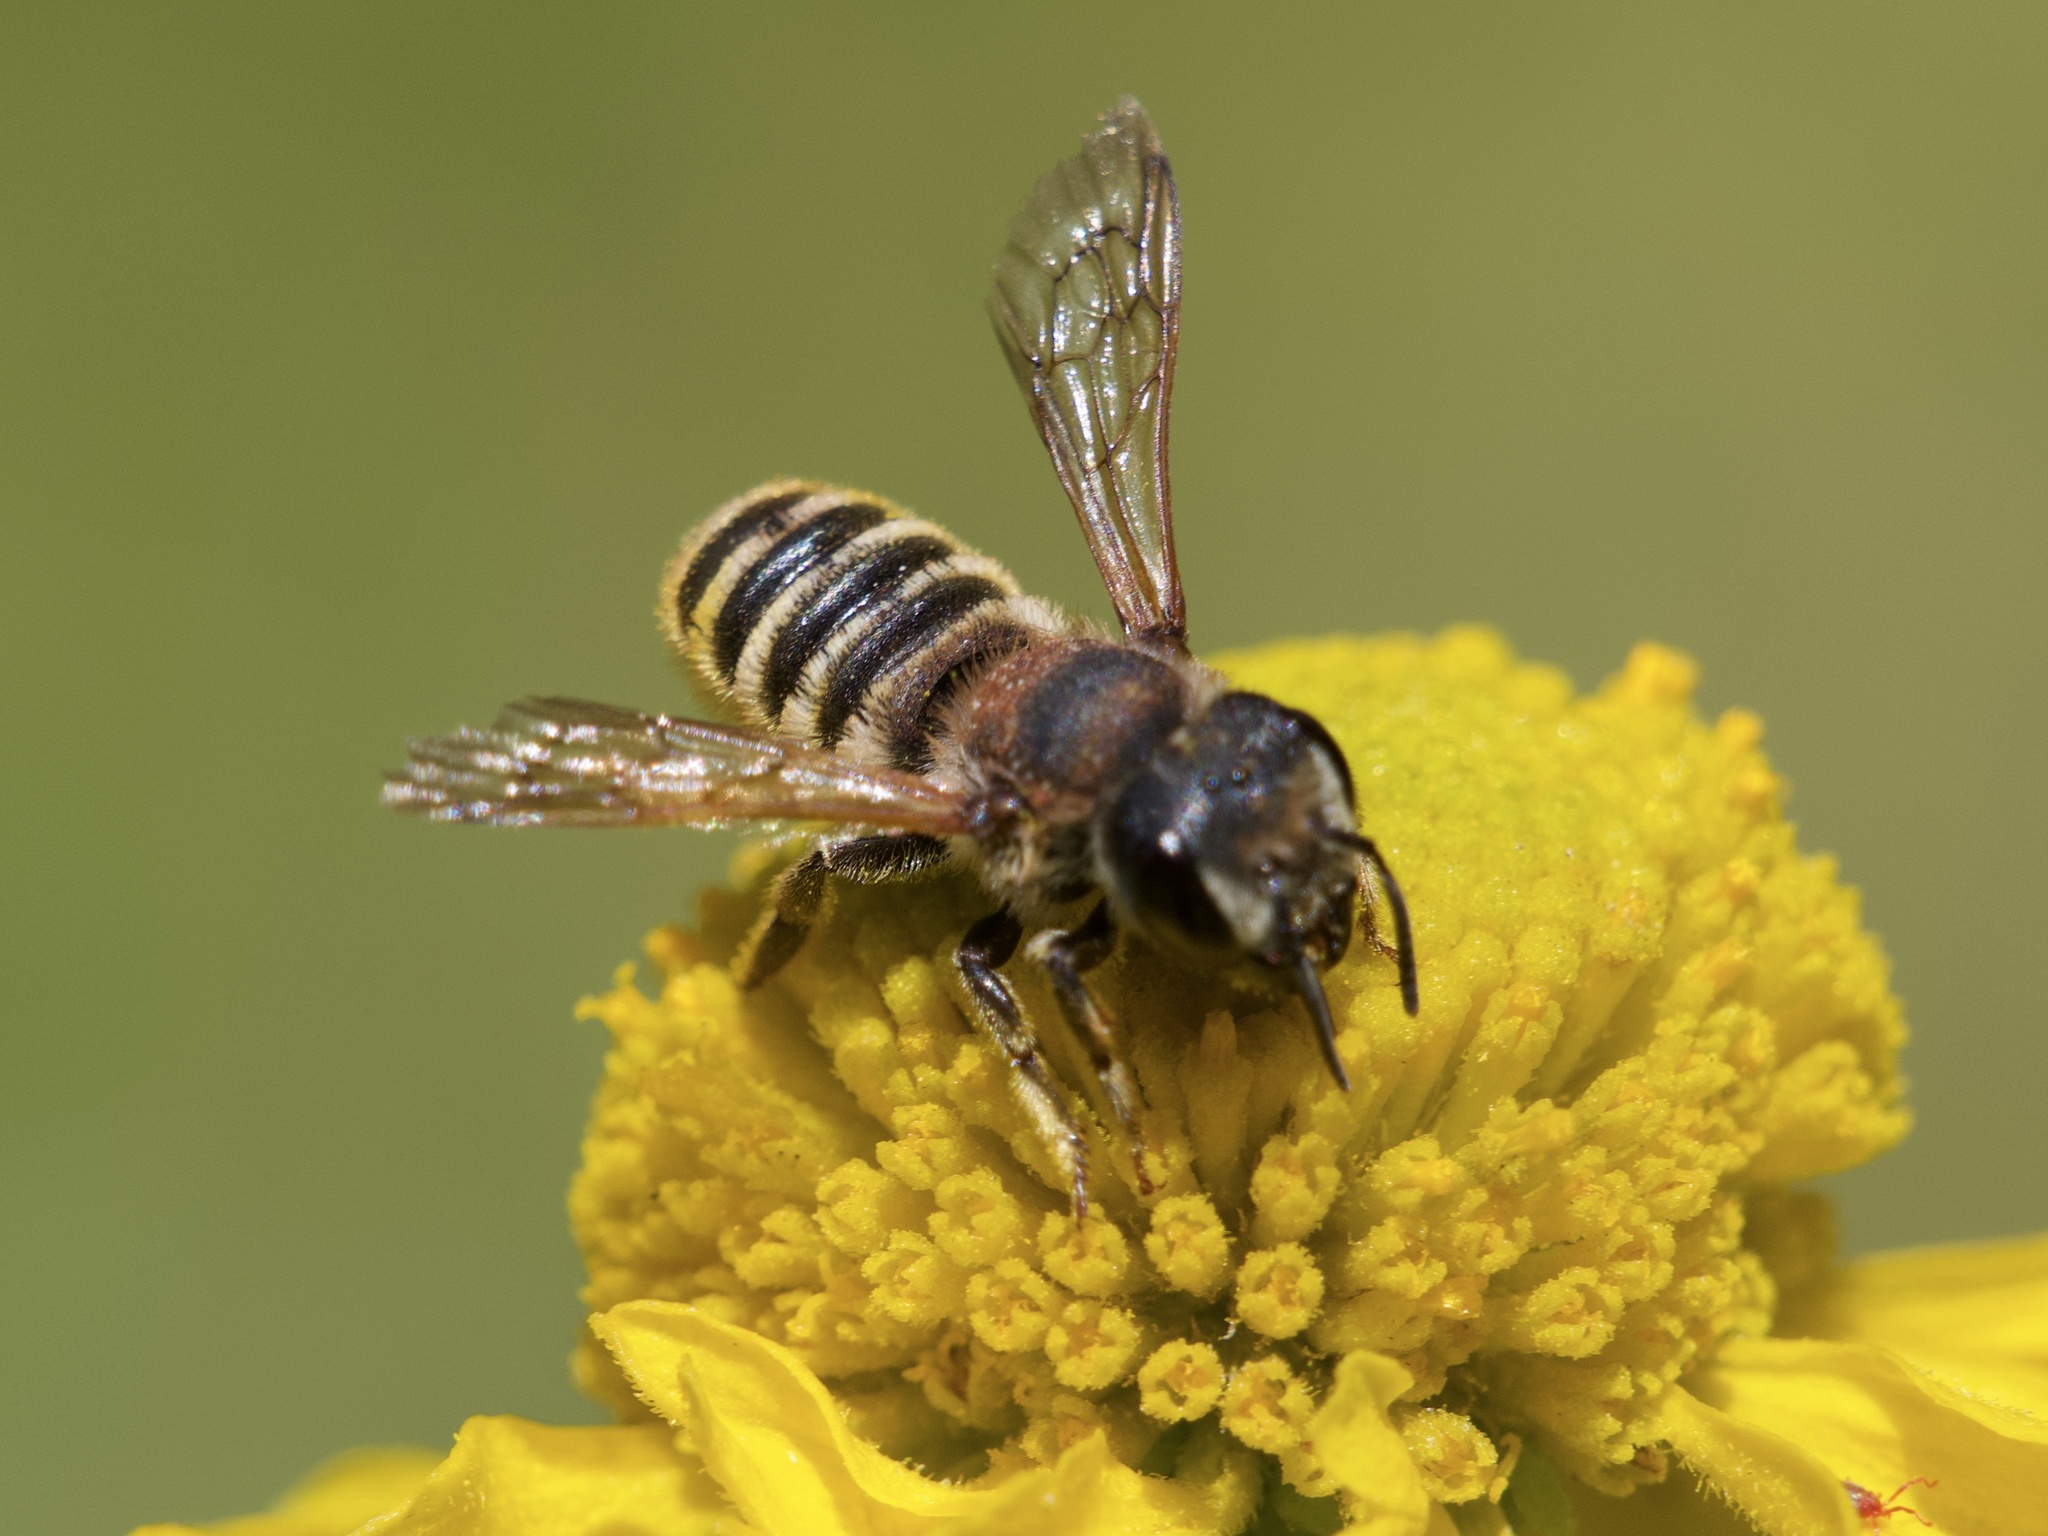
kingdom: Animalia
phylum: Arthropoda
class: Insecta
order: Hymenoptera
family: Megachilidae
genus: Megachile
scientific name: Megachile fidelis
